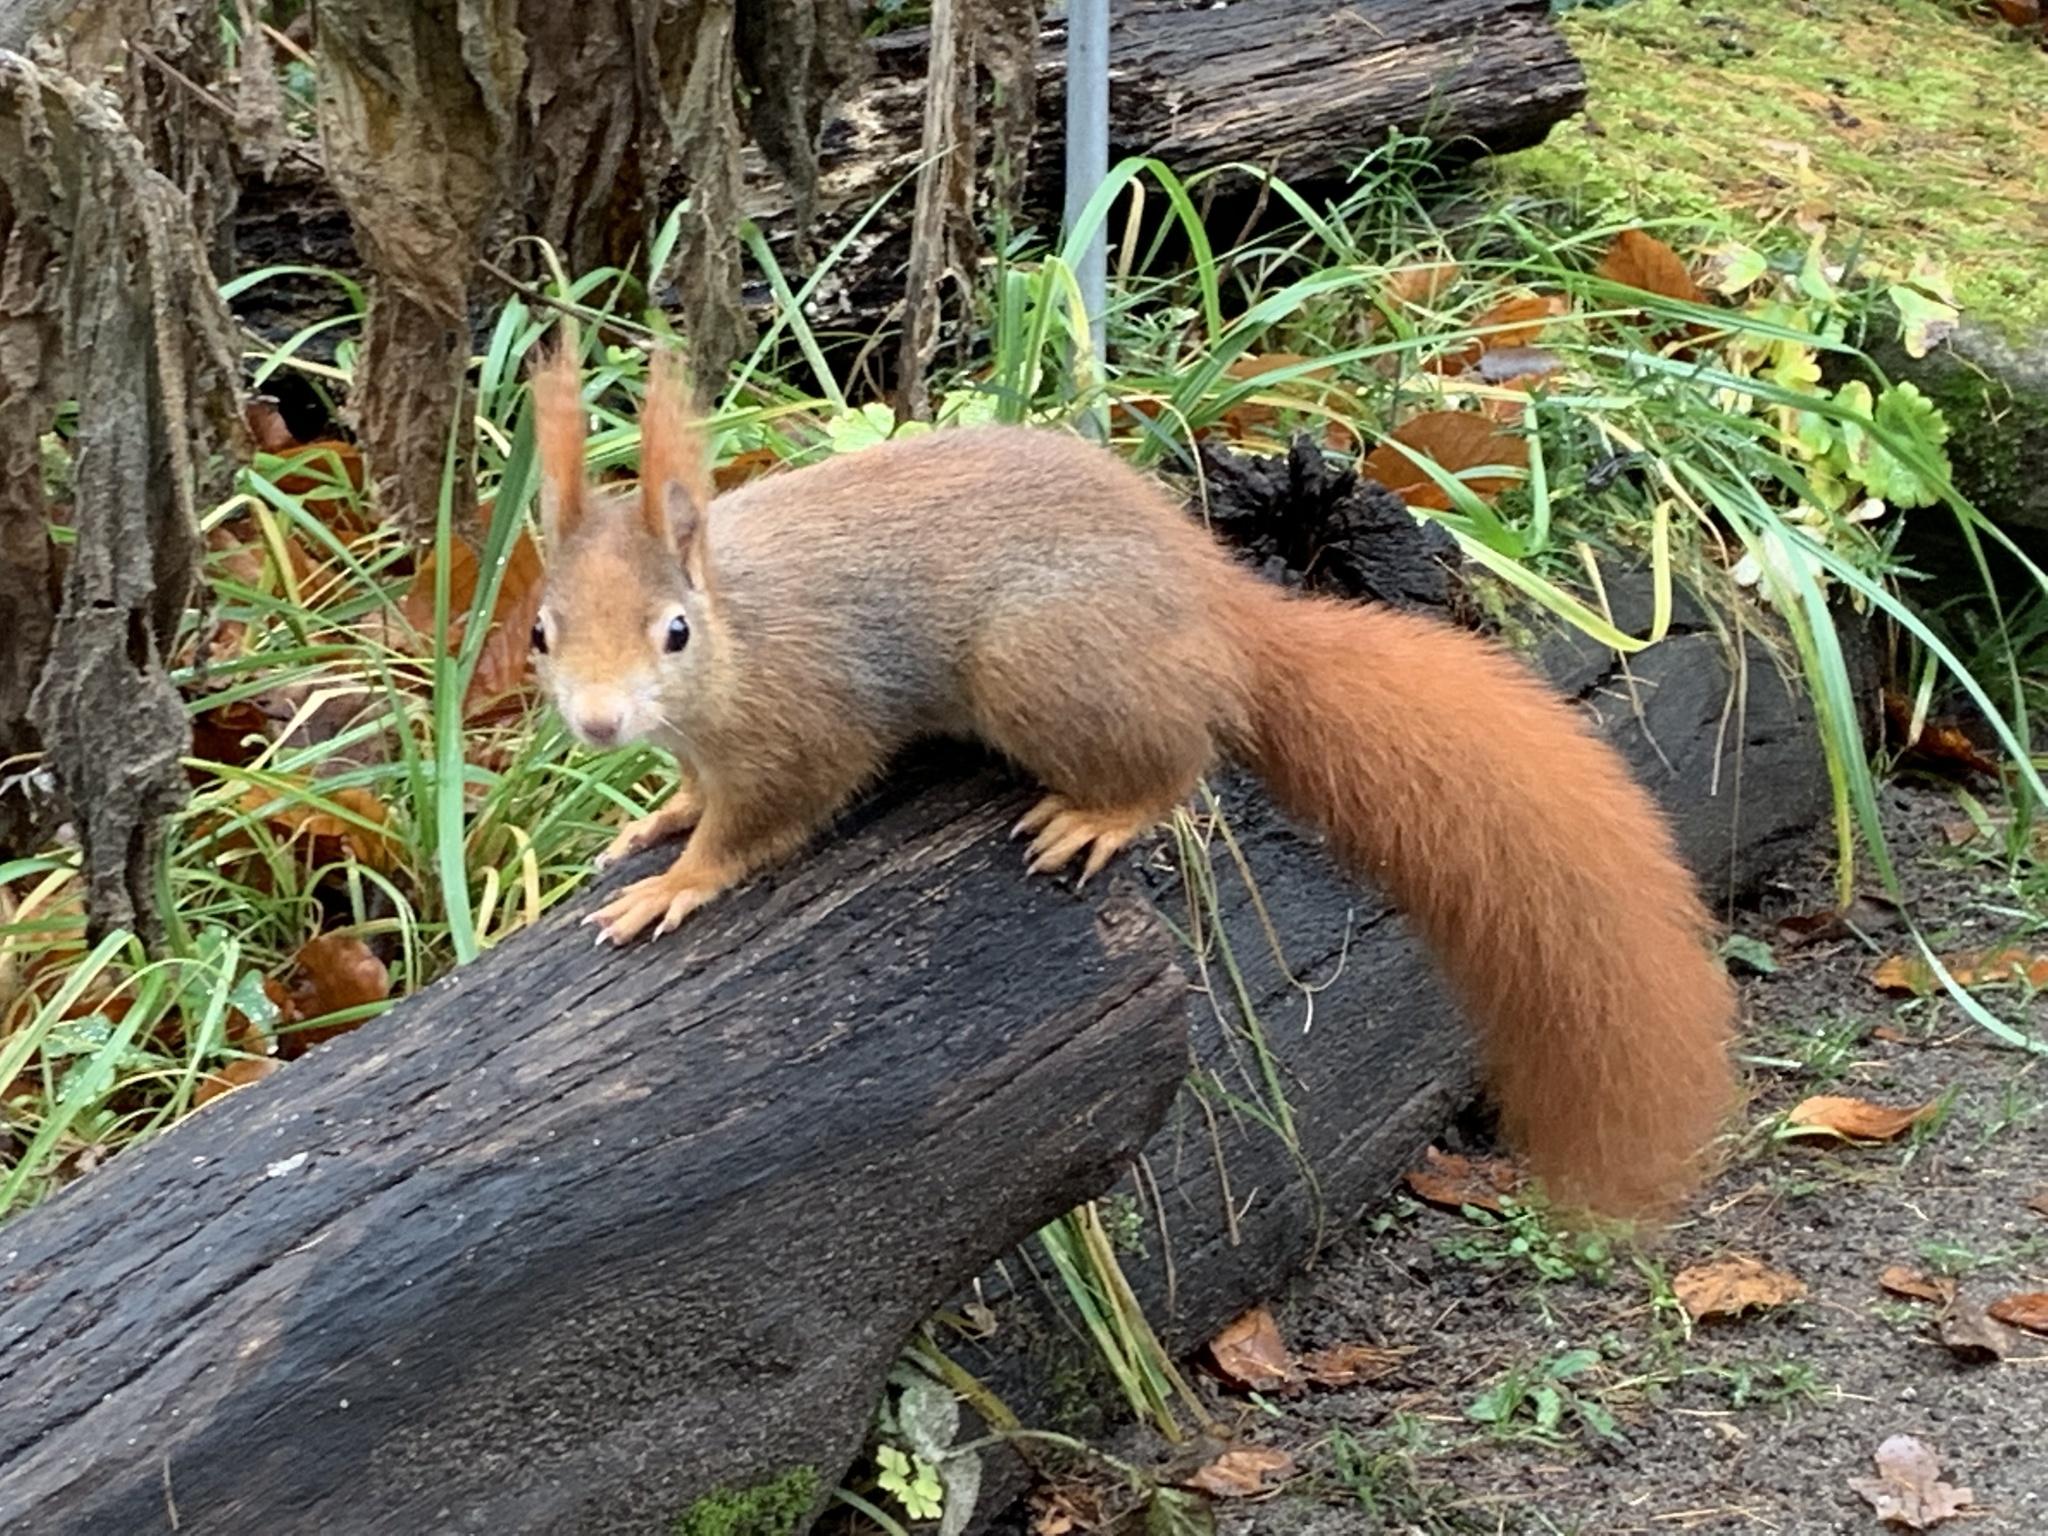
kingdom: Animalia
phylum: Chordata
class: Mammalia
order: Rodentia
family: Sciuridae
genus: Sciurus
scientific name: Sciurus vulgaris
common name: Eurasian red squirrel
